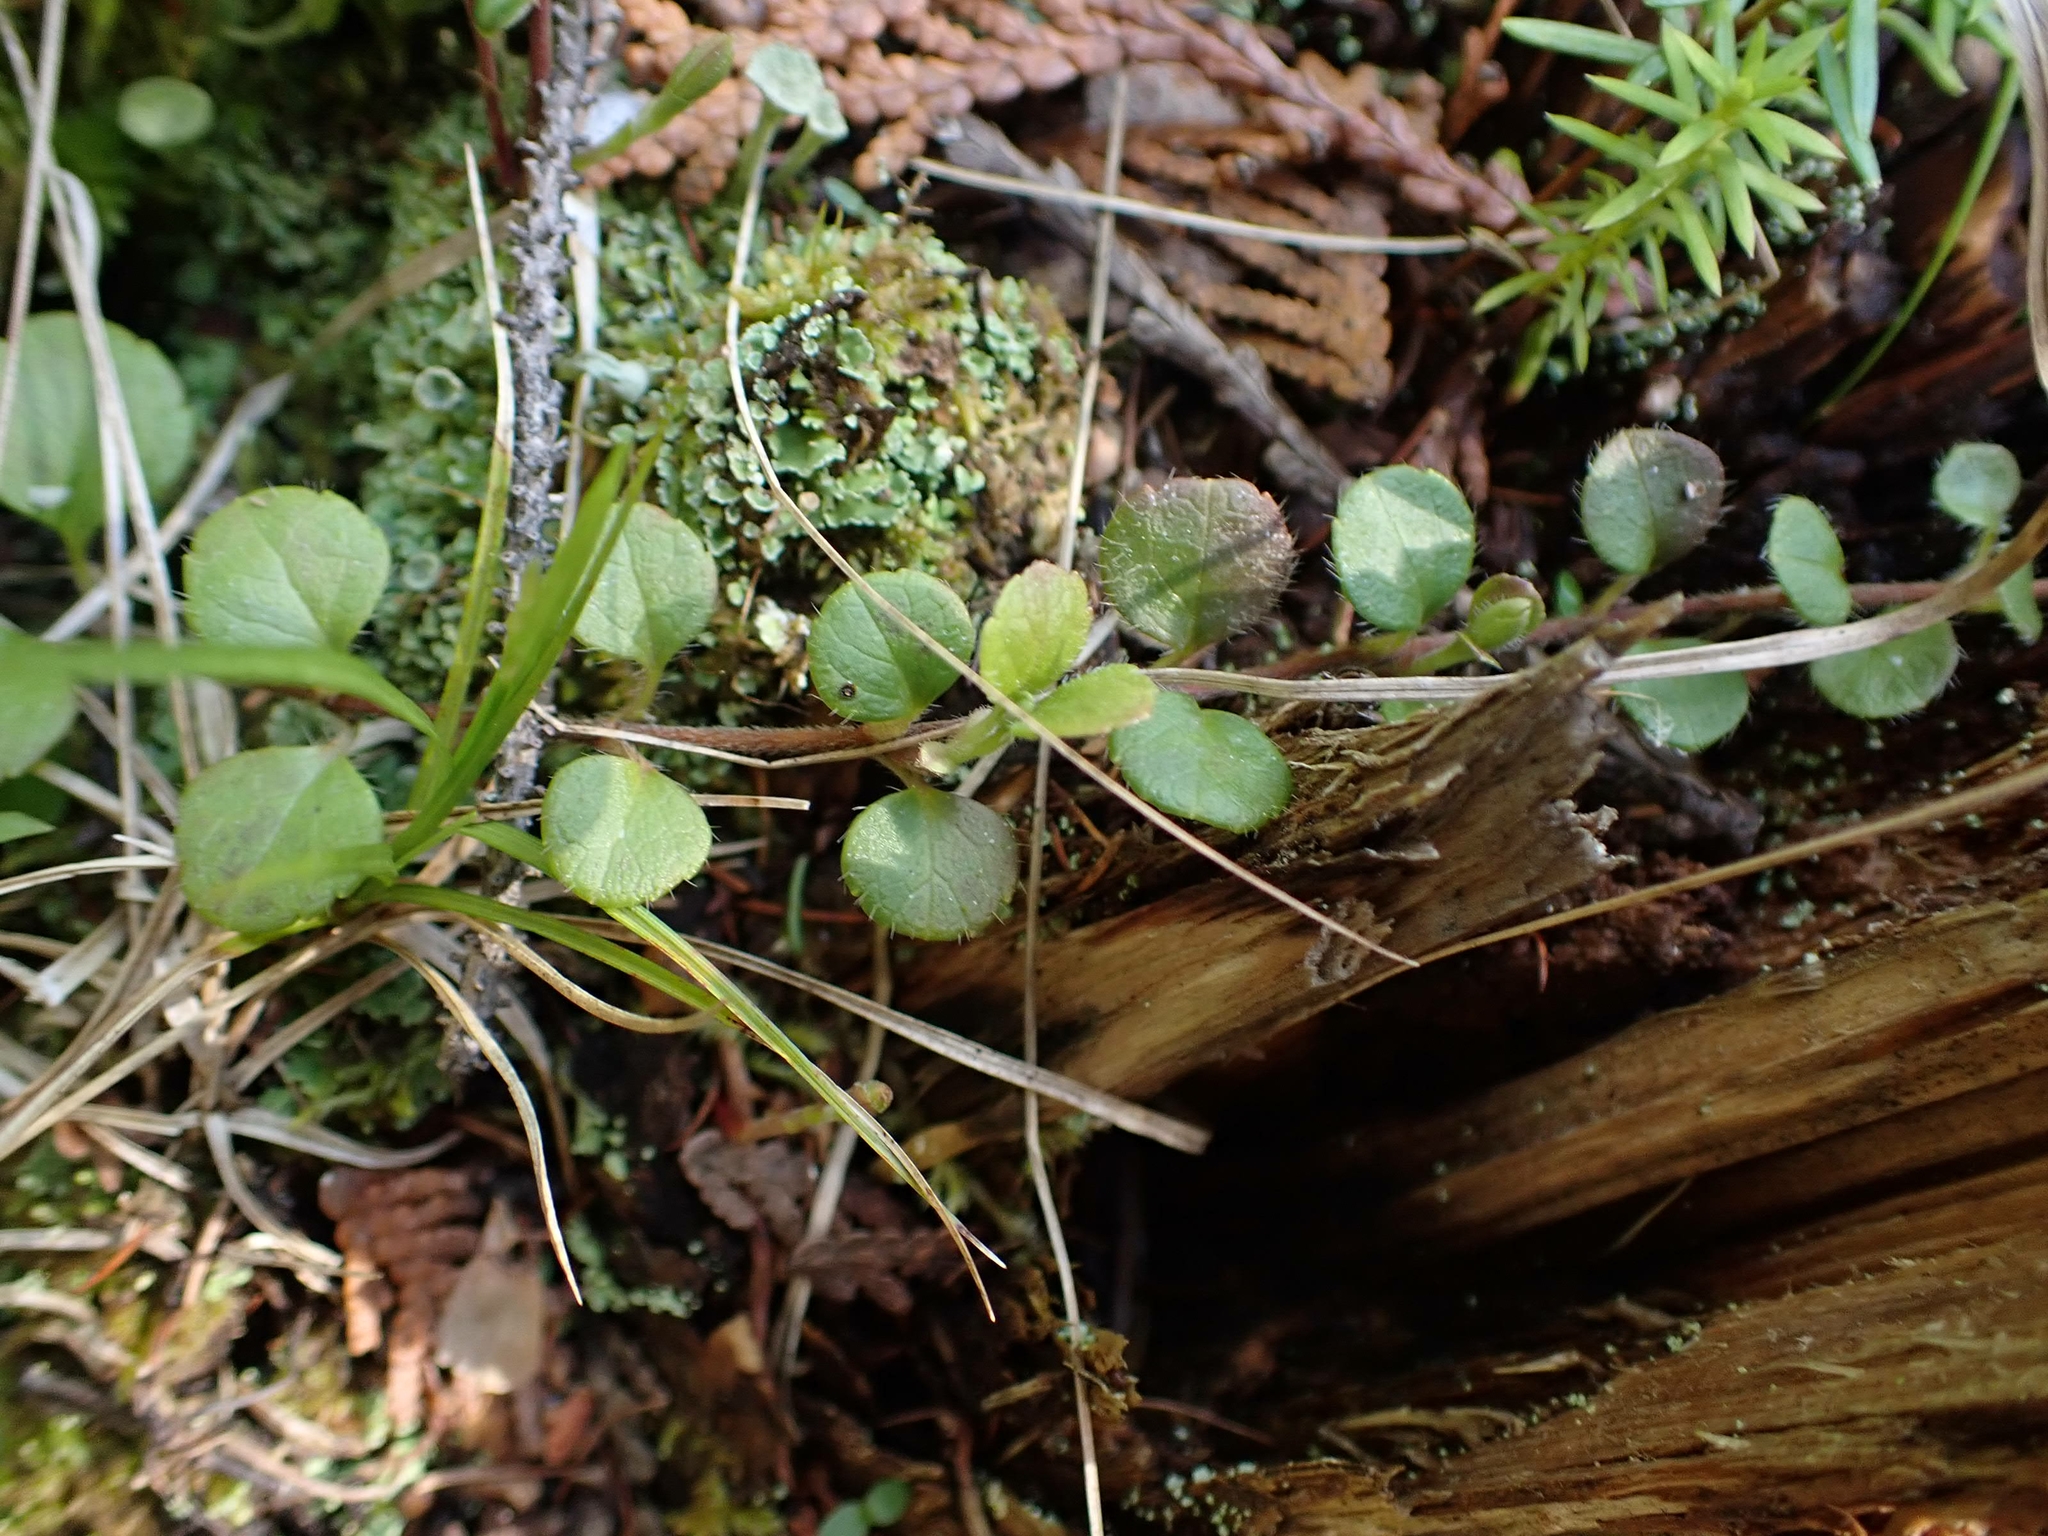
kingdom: Plantae
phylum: Tracheophyta
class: Magnoliopsida
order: Dipsacales
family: Caprifoliaceae
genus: Linnaea
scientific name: Linnaea borealis
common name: Twinflower
